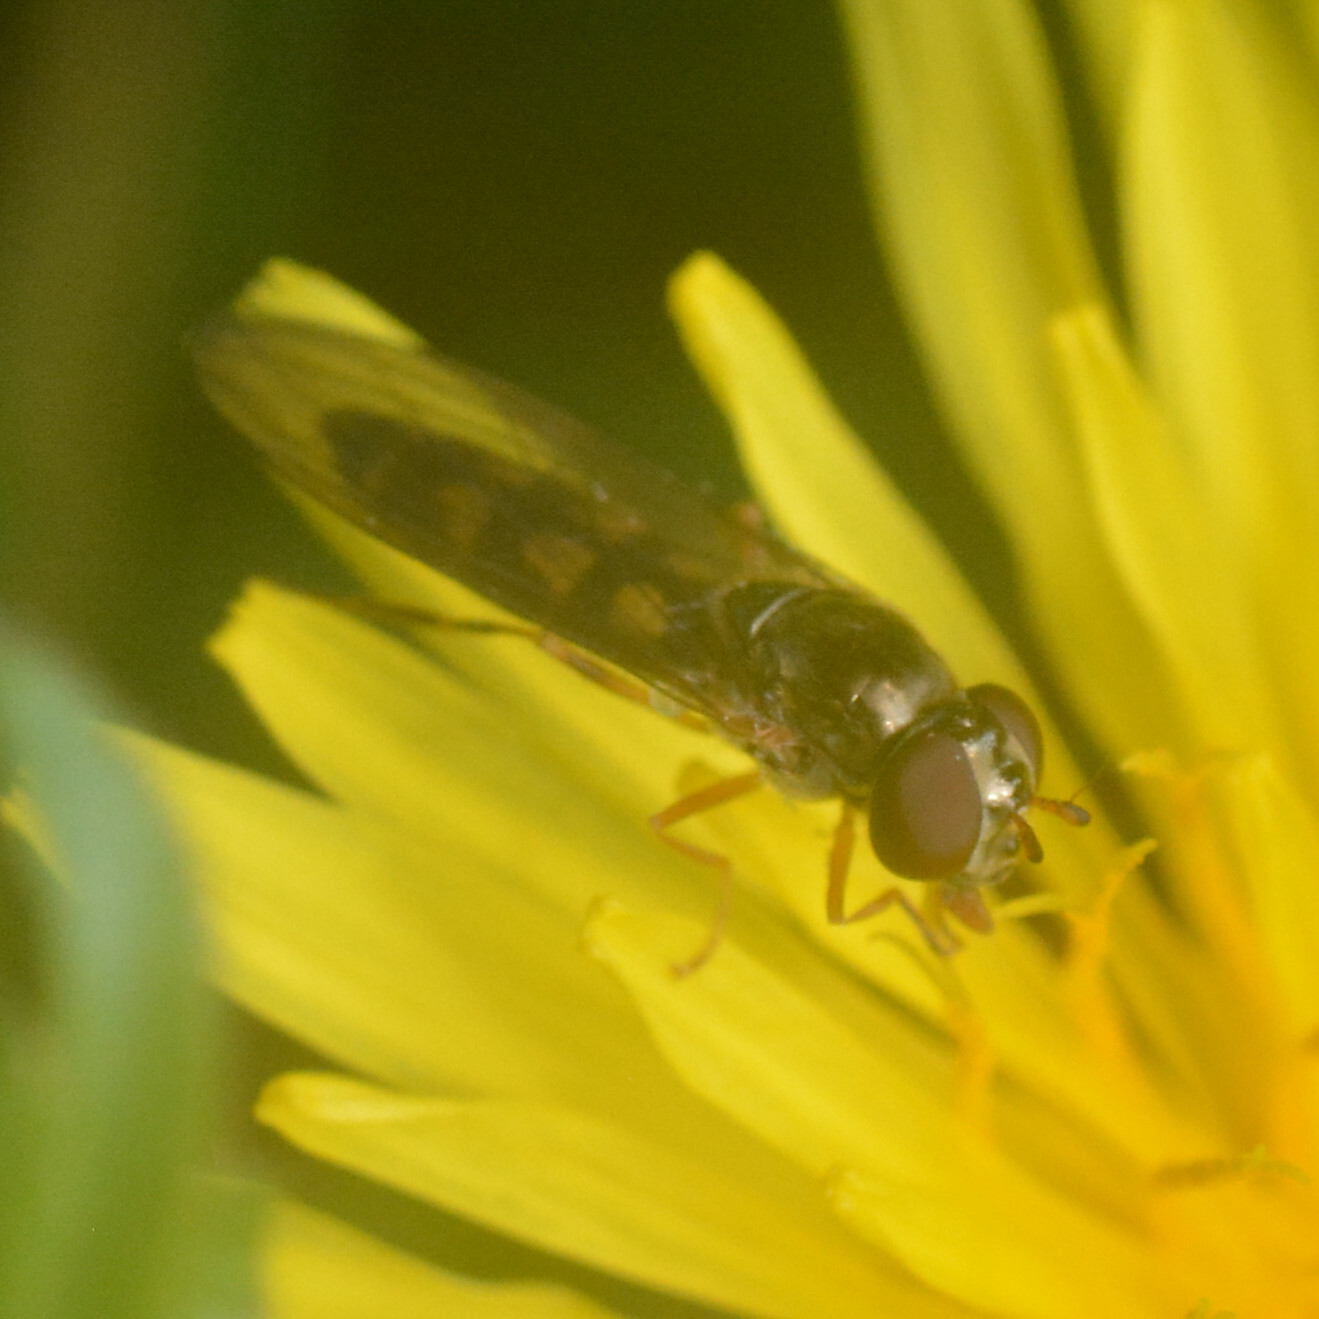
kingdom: Animalia
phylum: Arthropoda
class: Insecta
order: Diptera
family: Syrphidae
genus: Melanostoma
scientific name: Melanostoma scalare
